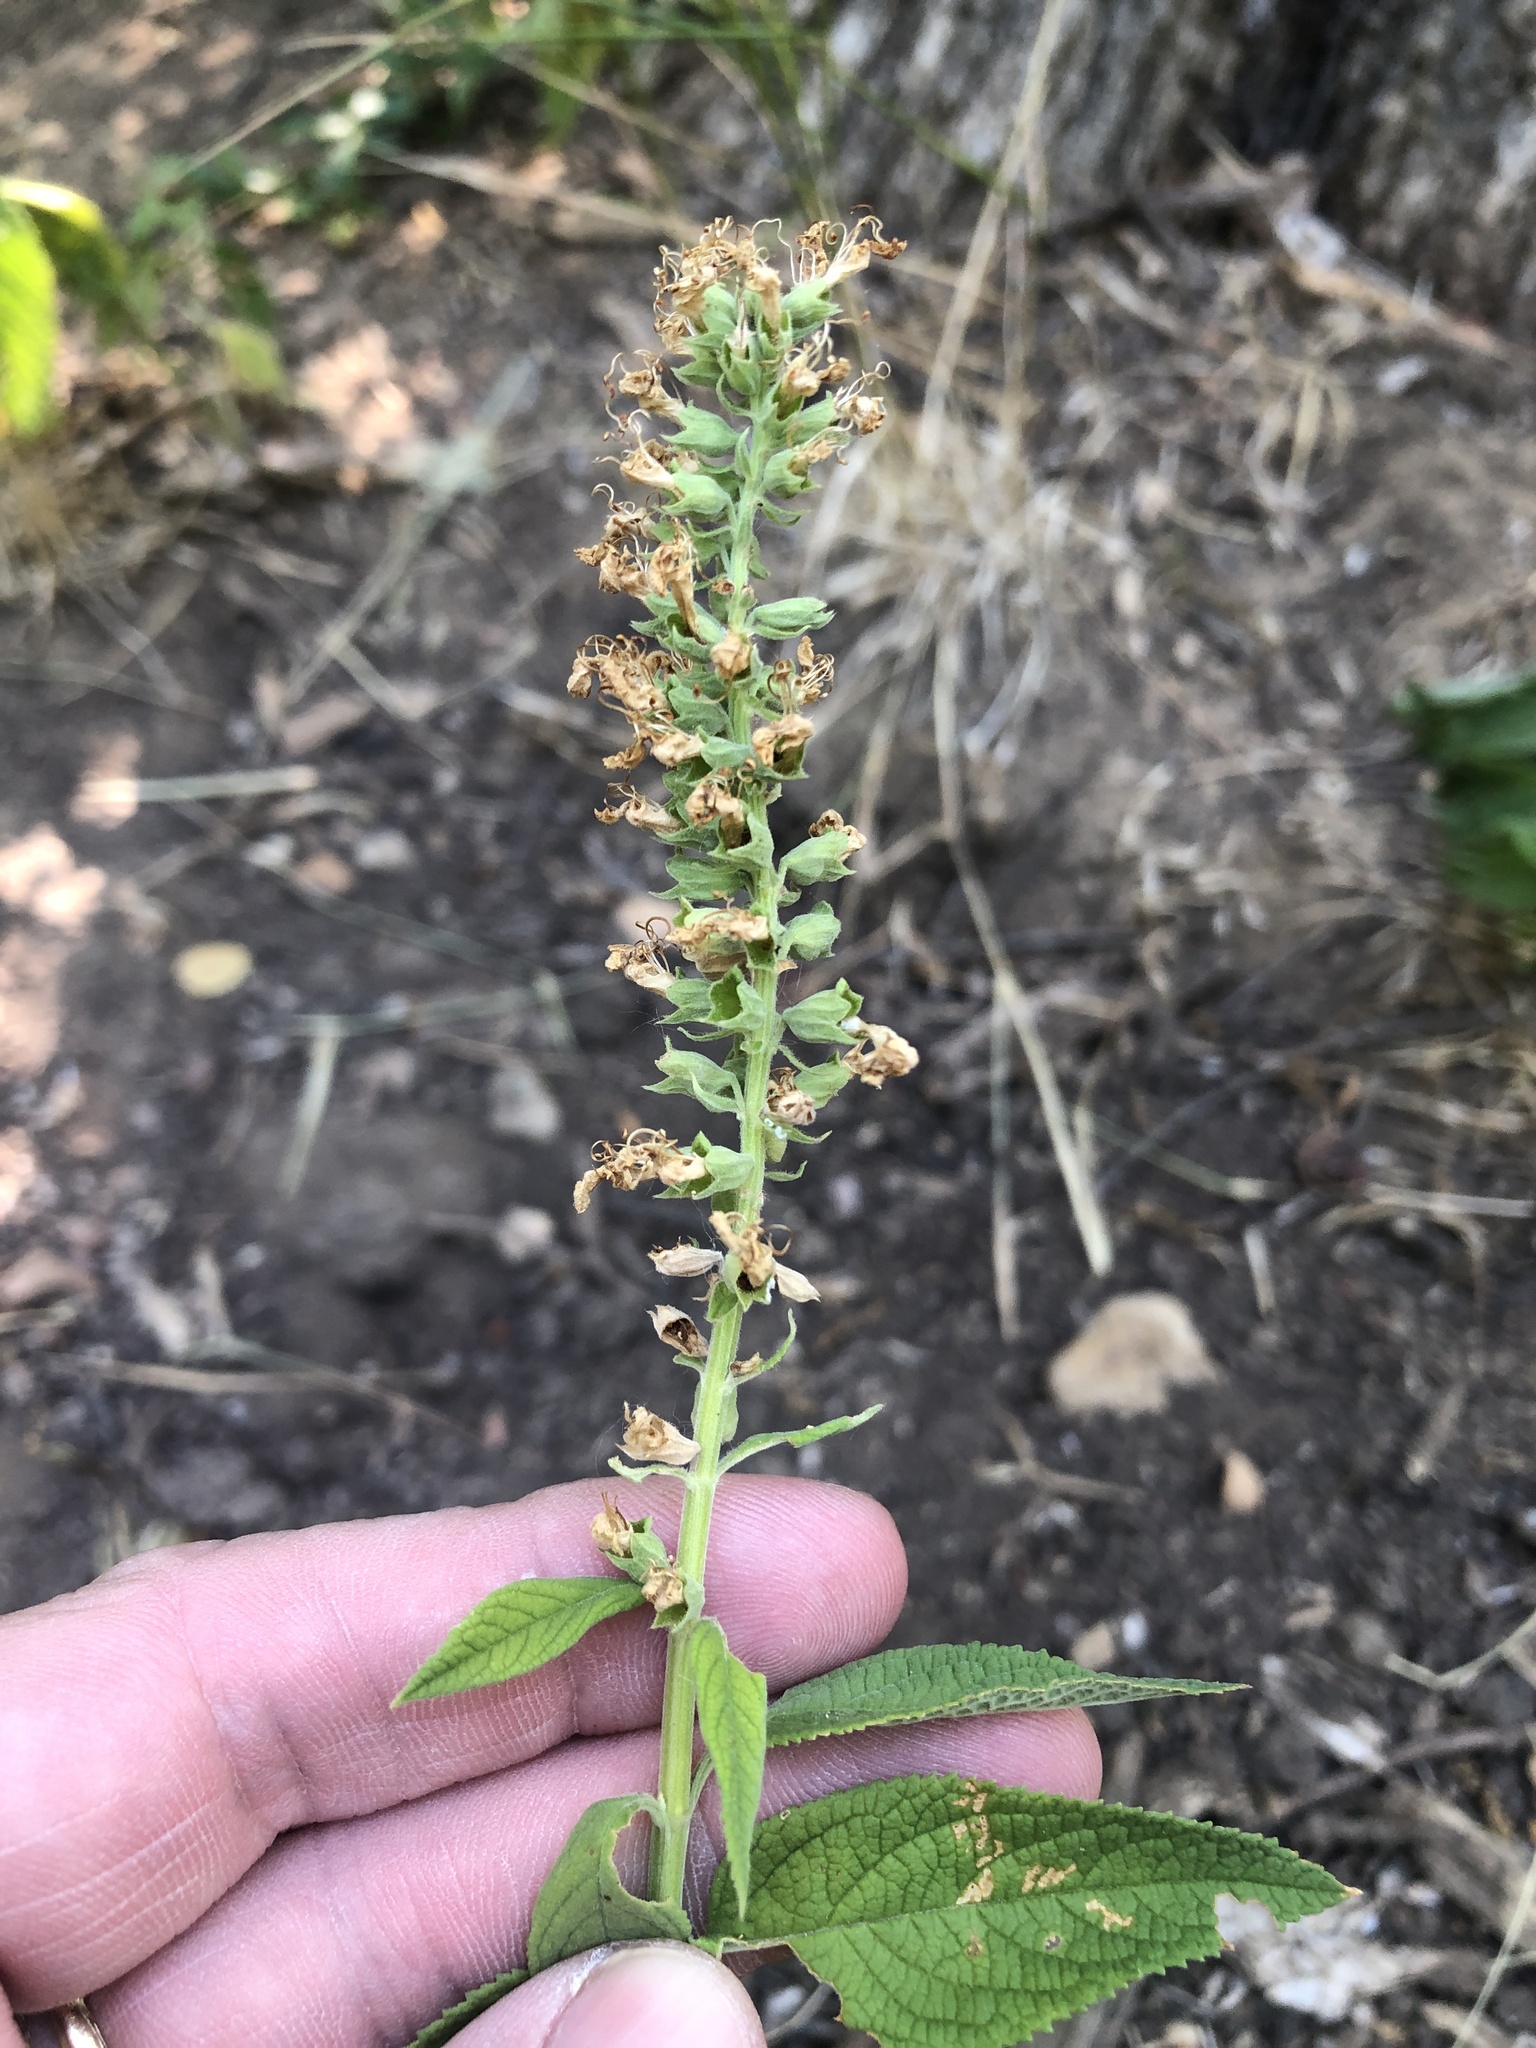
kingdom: Plantae
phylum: Tracheophyta
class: Magnoliopsida
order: Lamiales
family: Lamiaceae
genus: Teucrium
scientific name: Teucrium canadense
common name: American germander
